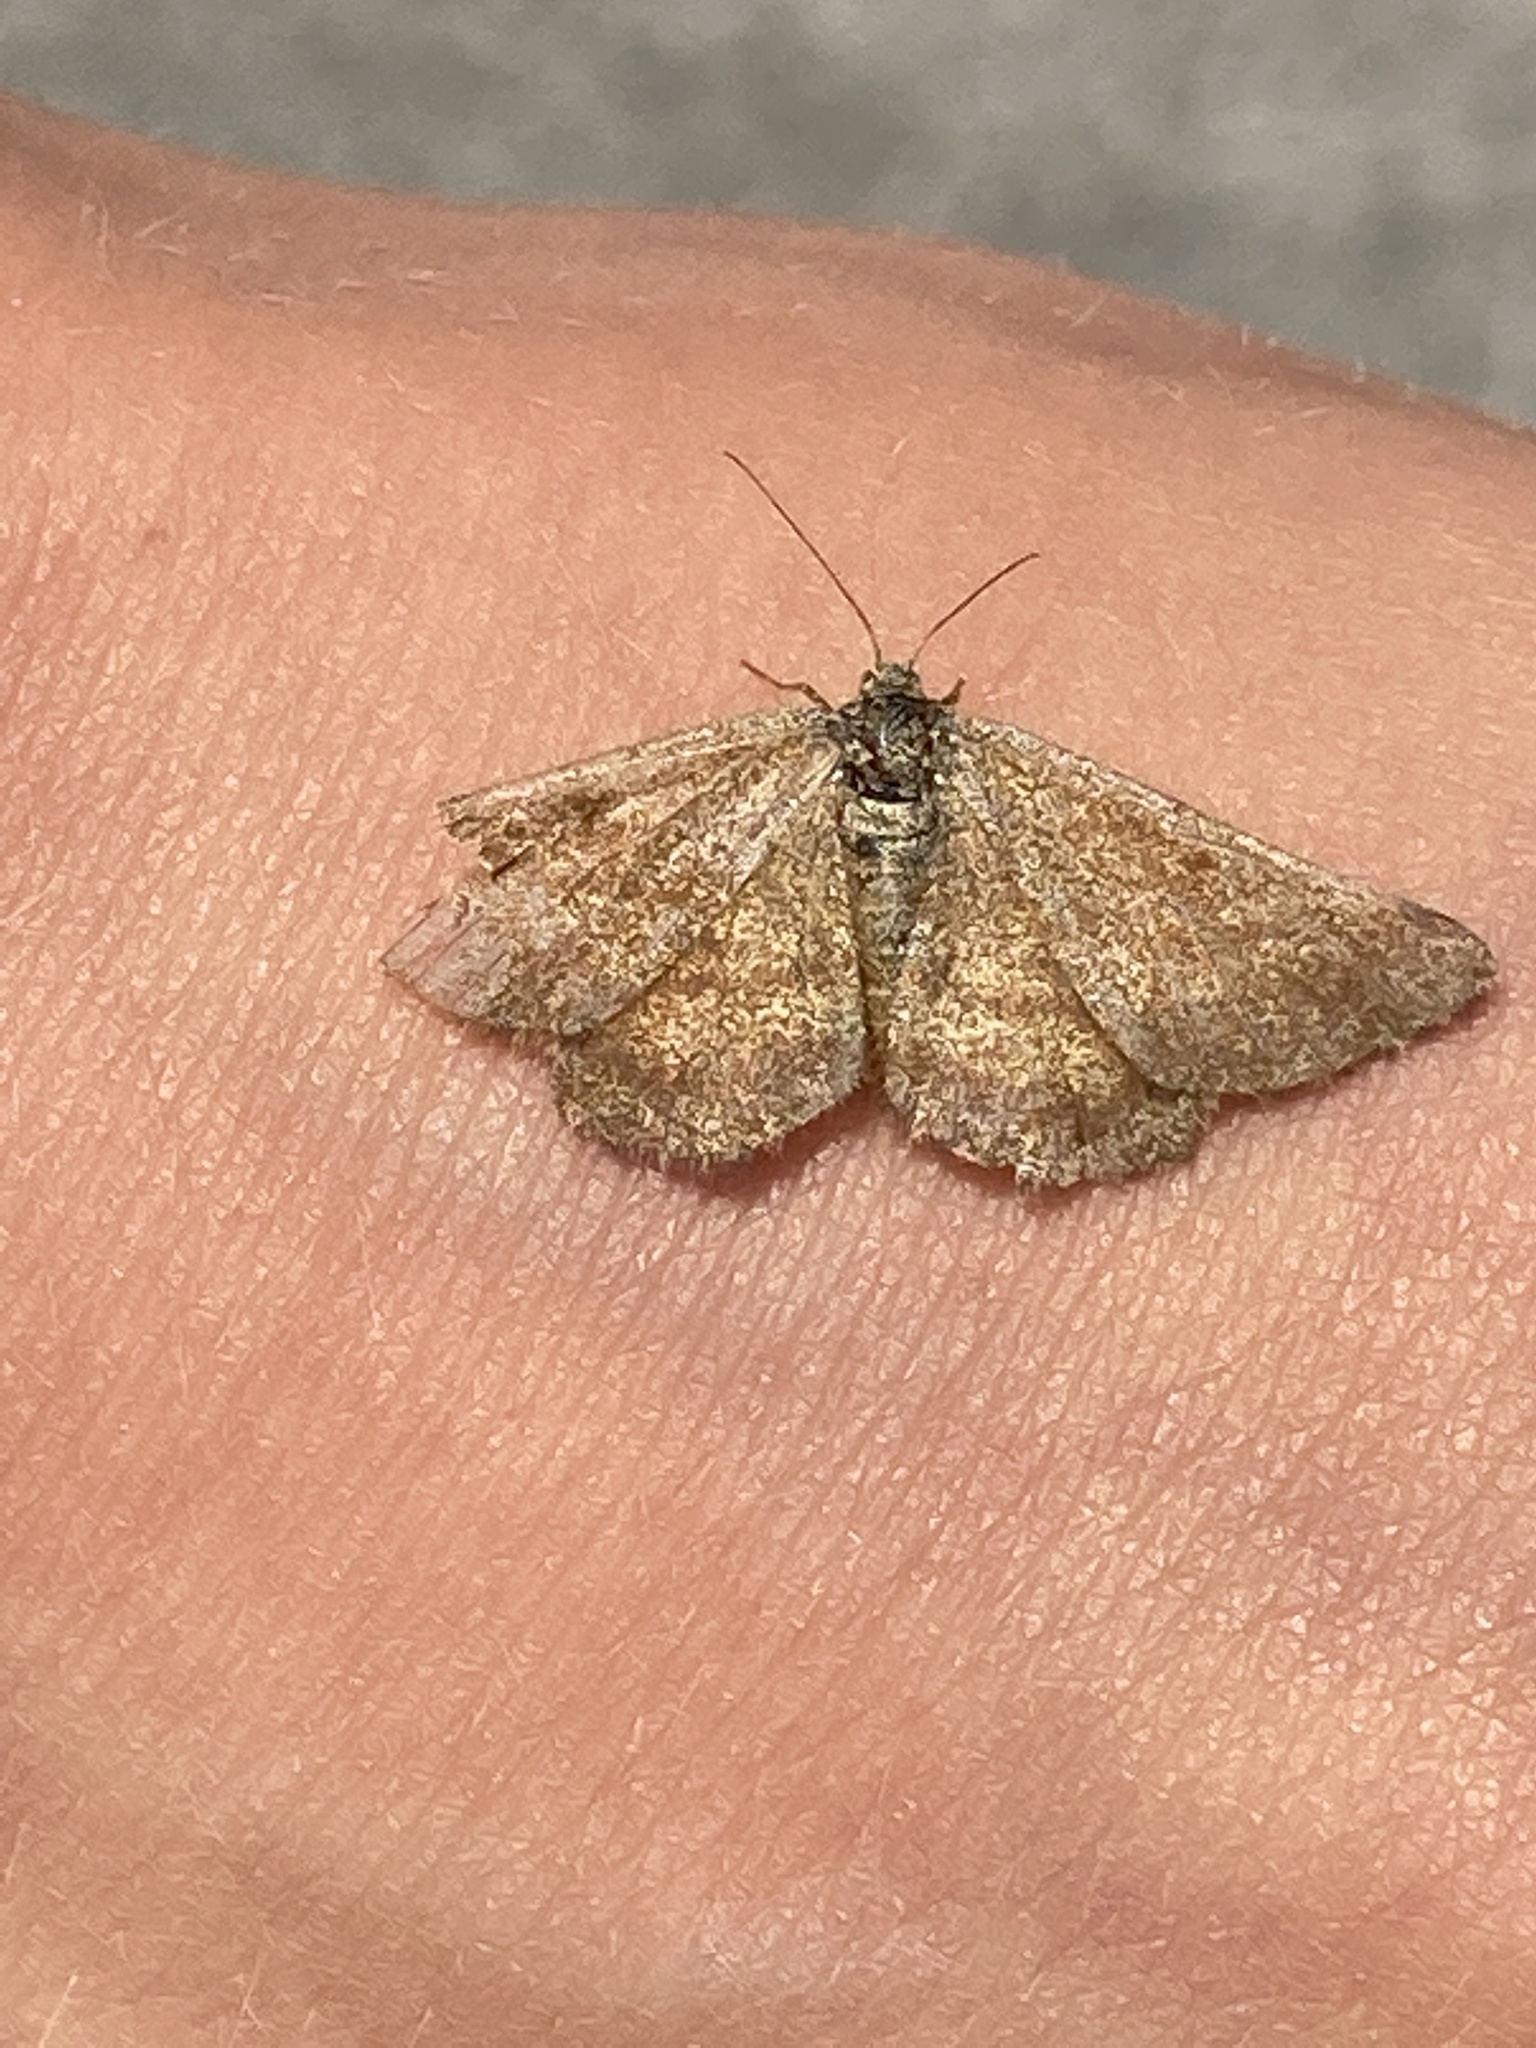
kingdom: Animalia
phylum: Arthropoda
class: Insecta
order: Lepidoptera
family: Geometridae
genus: Ematurga
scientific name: Ematurga atomaria
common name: Common heath
